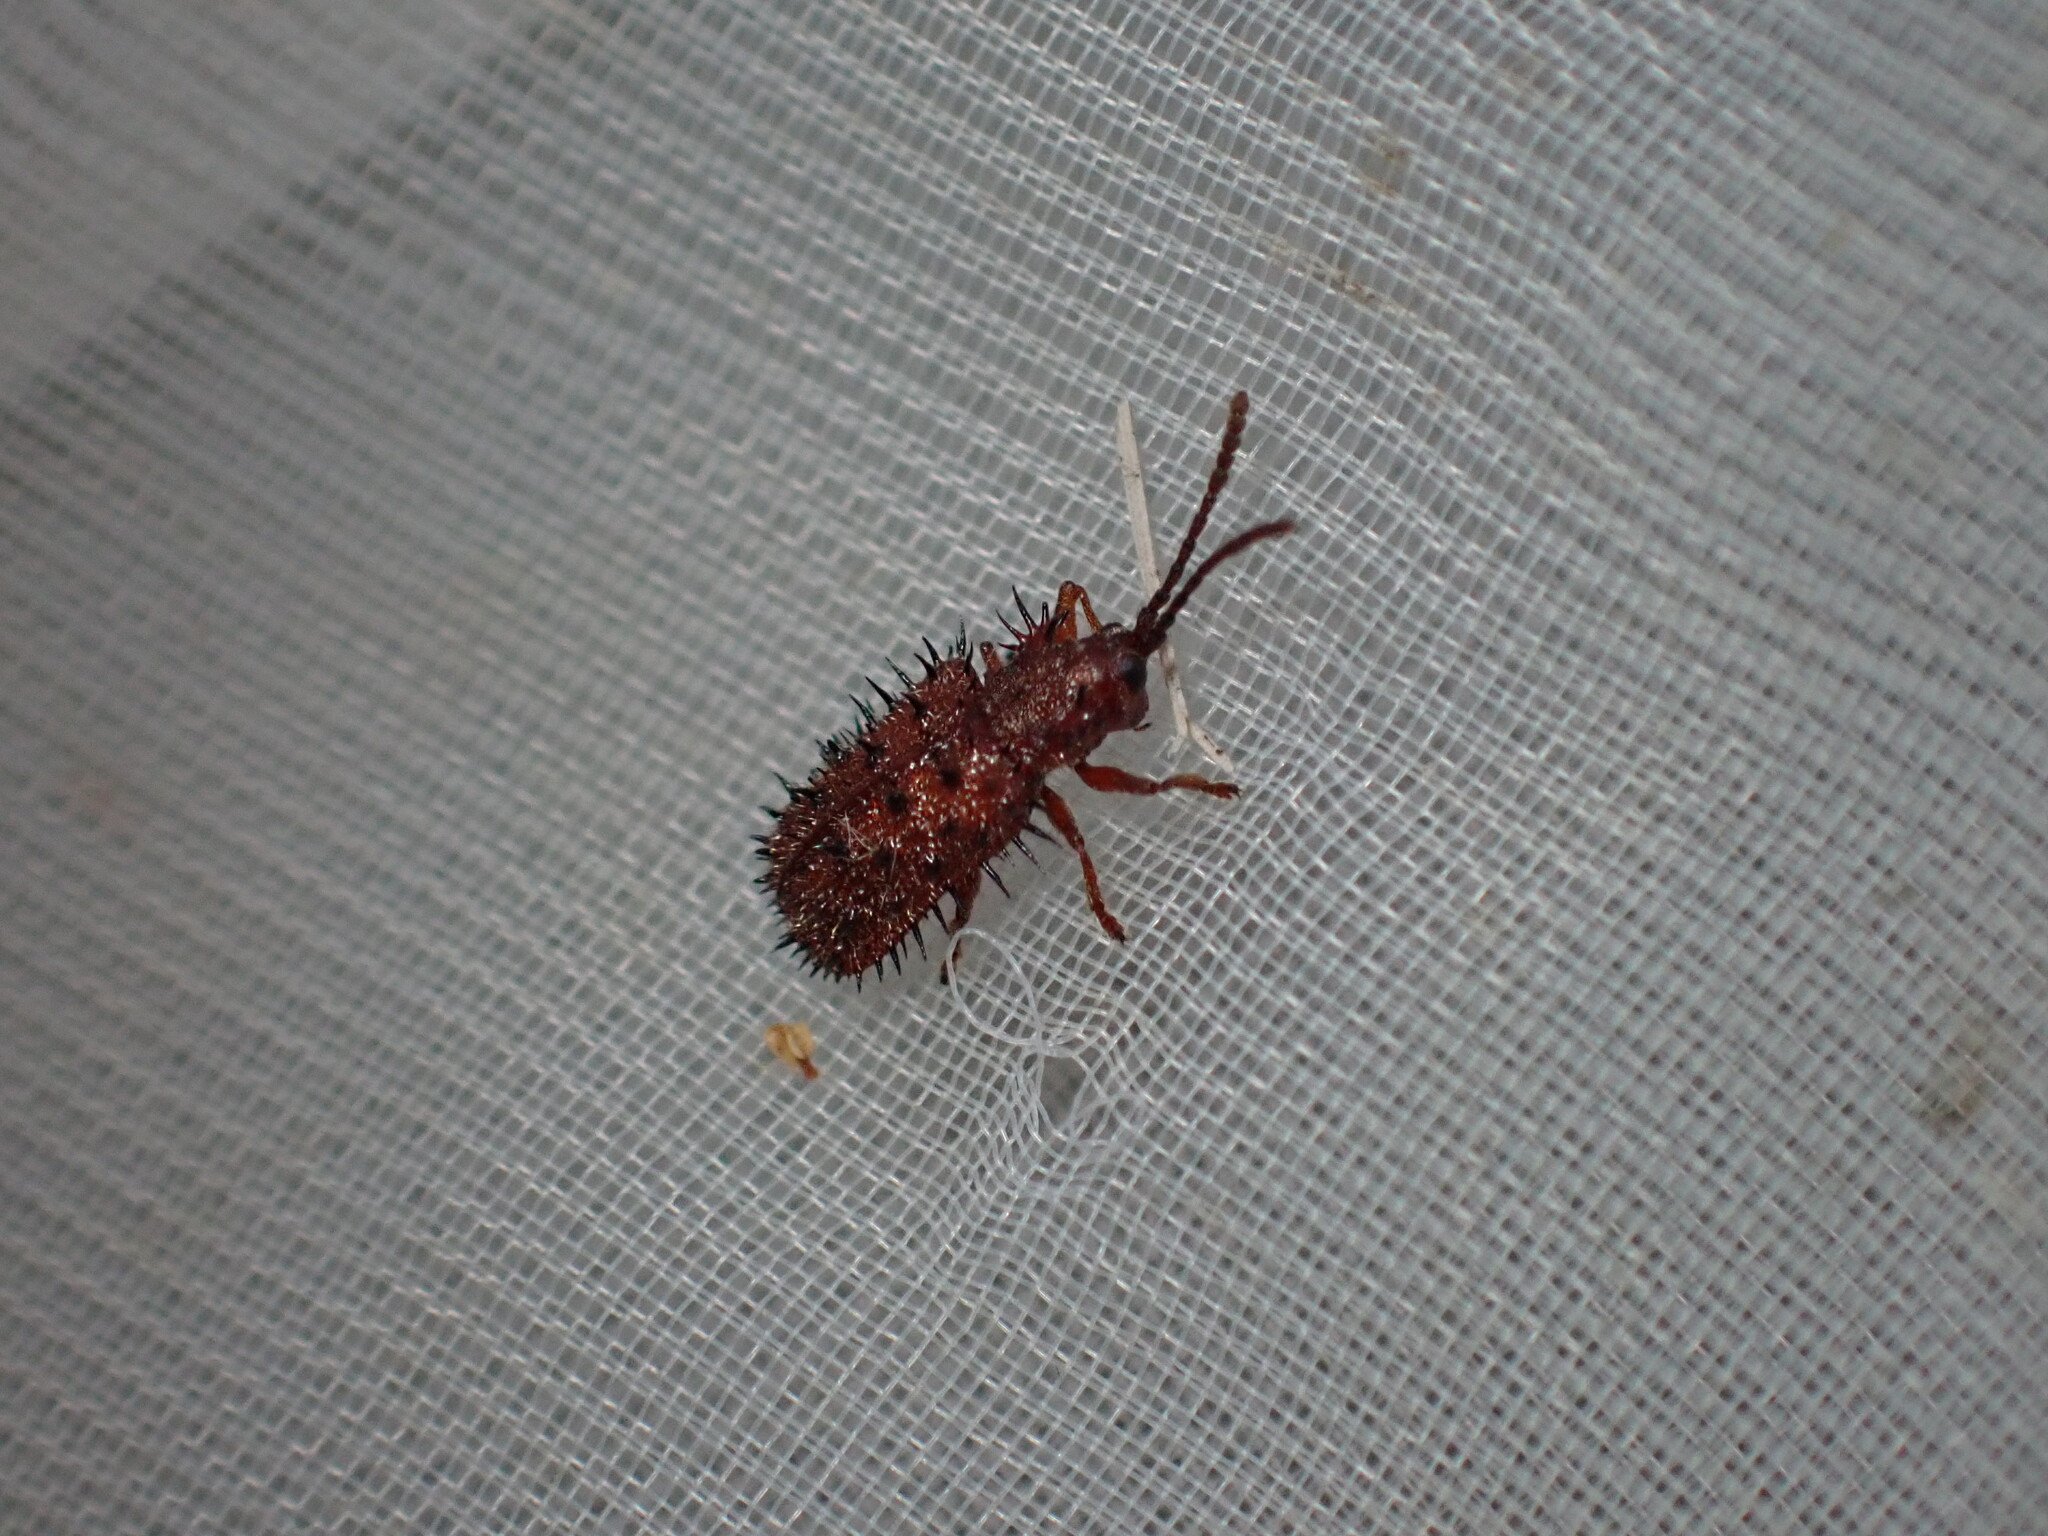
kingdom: Animalia
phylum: Arthropoda
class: Insecta
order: Coleoptera
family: Chrysomelidae
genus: Dicladispa
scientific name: Dicladispa testacea
